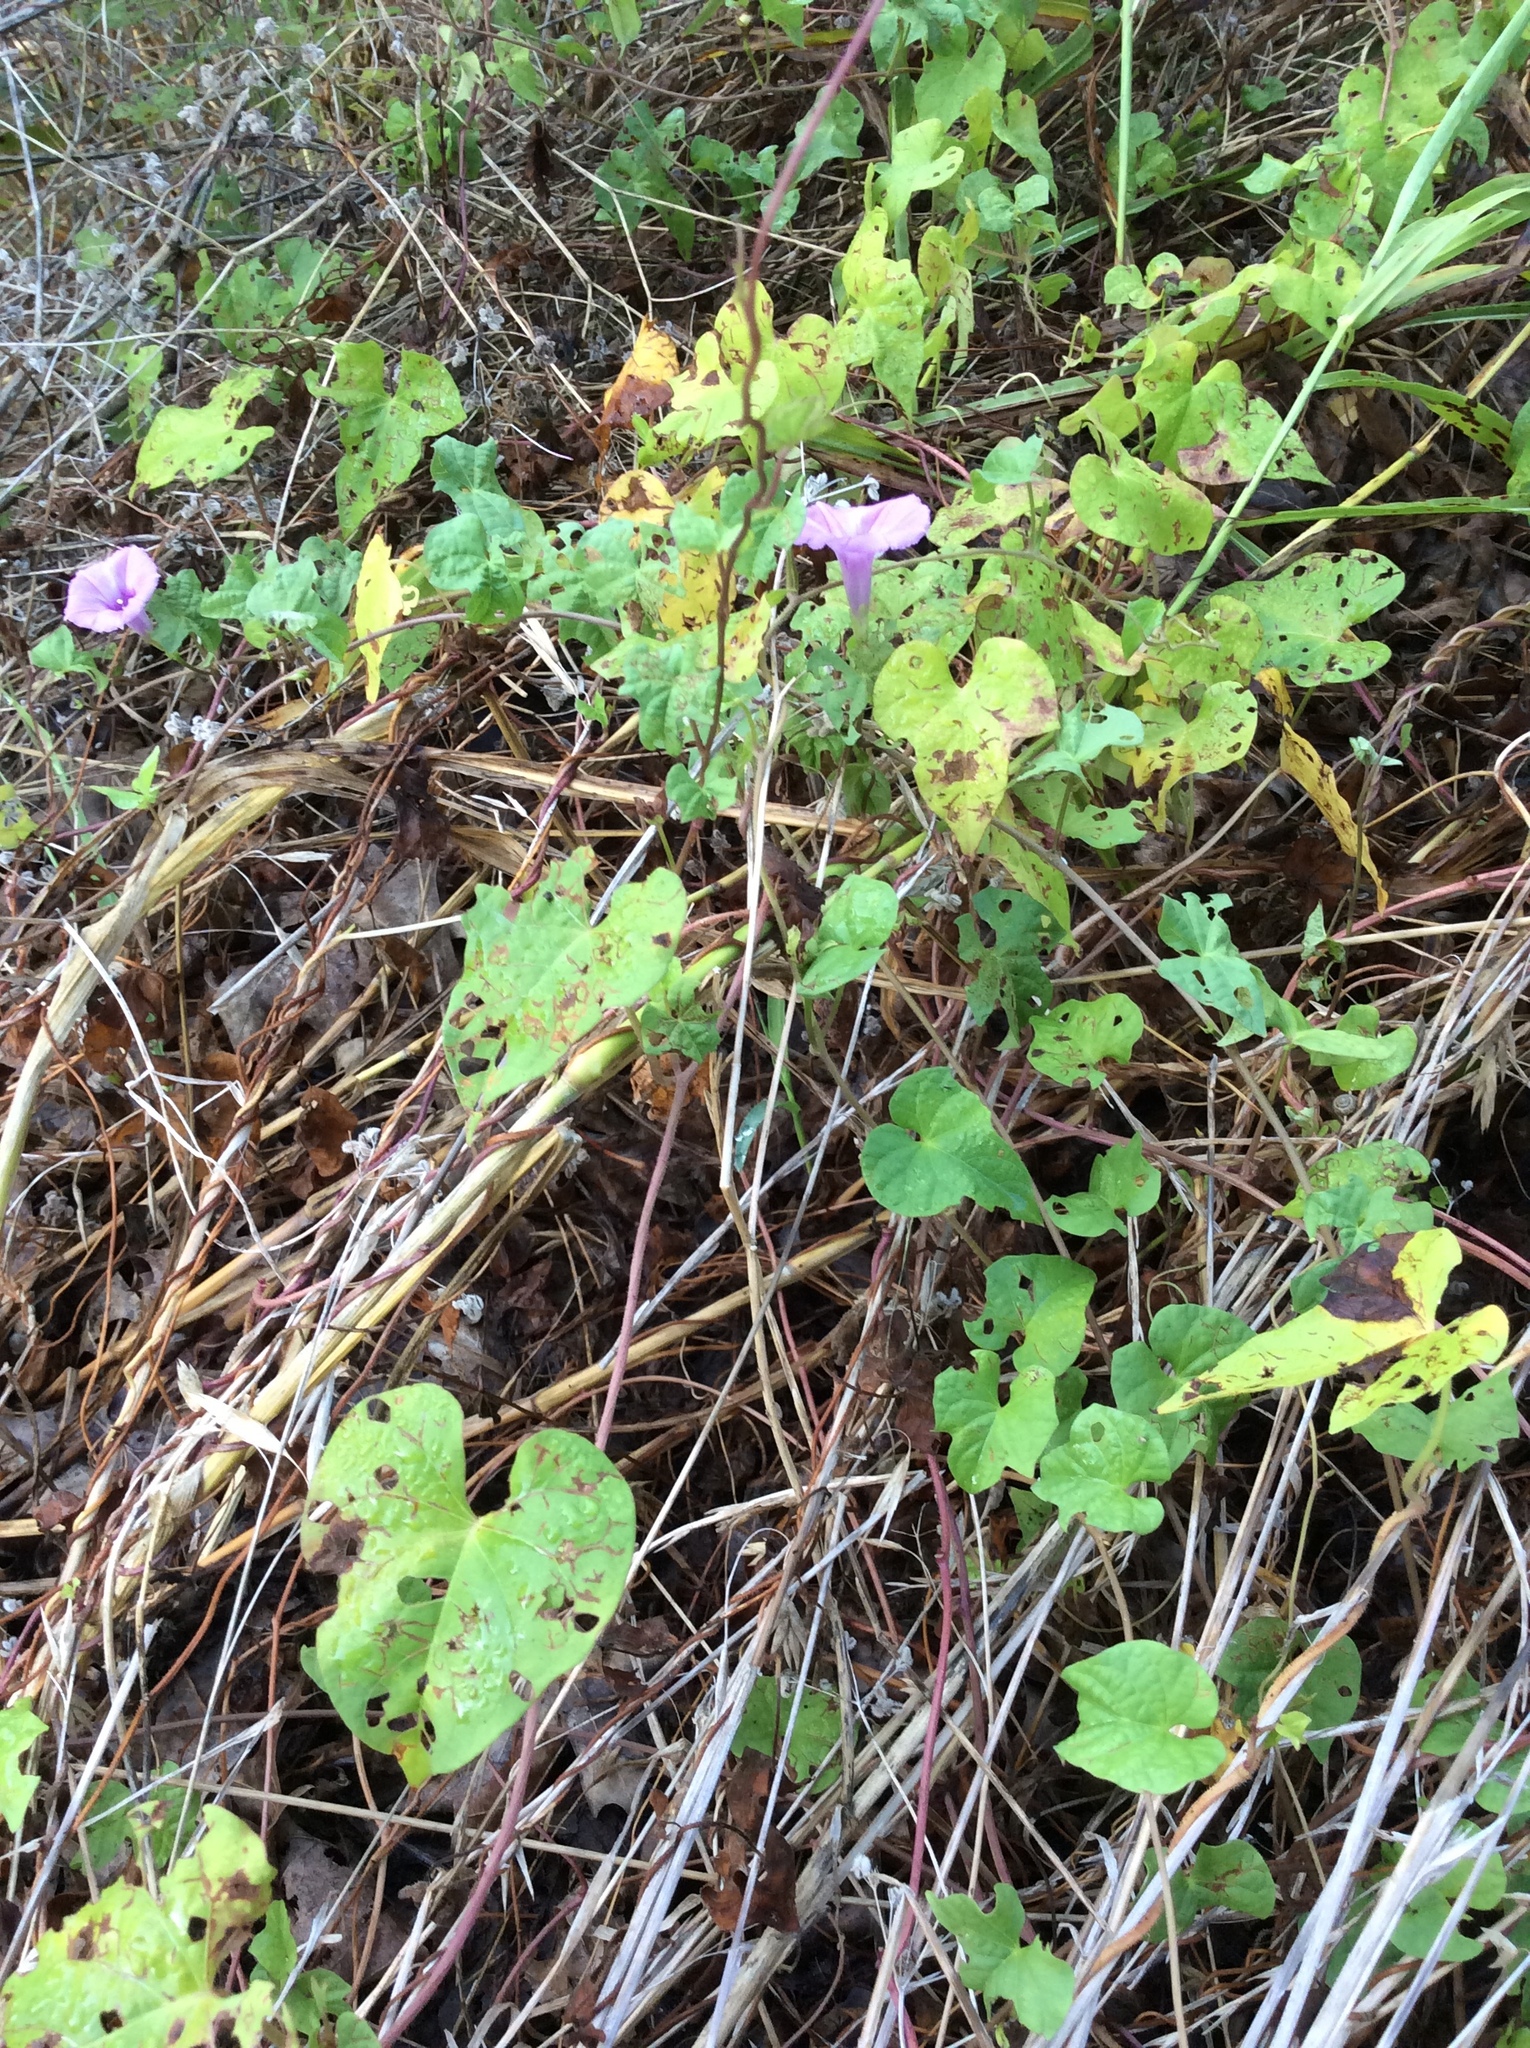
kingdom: Plantae
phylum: Tracheophyta
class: Magnoliopsida
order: Solanales
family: Convolvulaceae
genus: Ipomoea
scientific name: Ipomoea cordatotriloba
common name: Cotton morning glory
